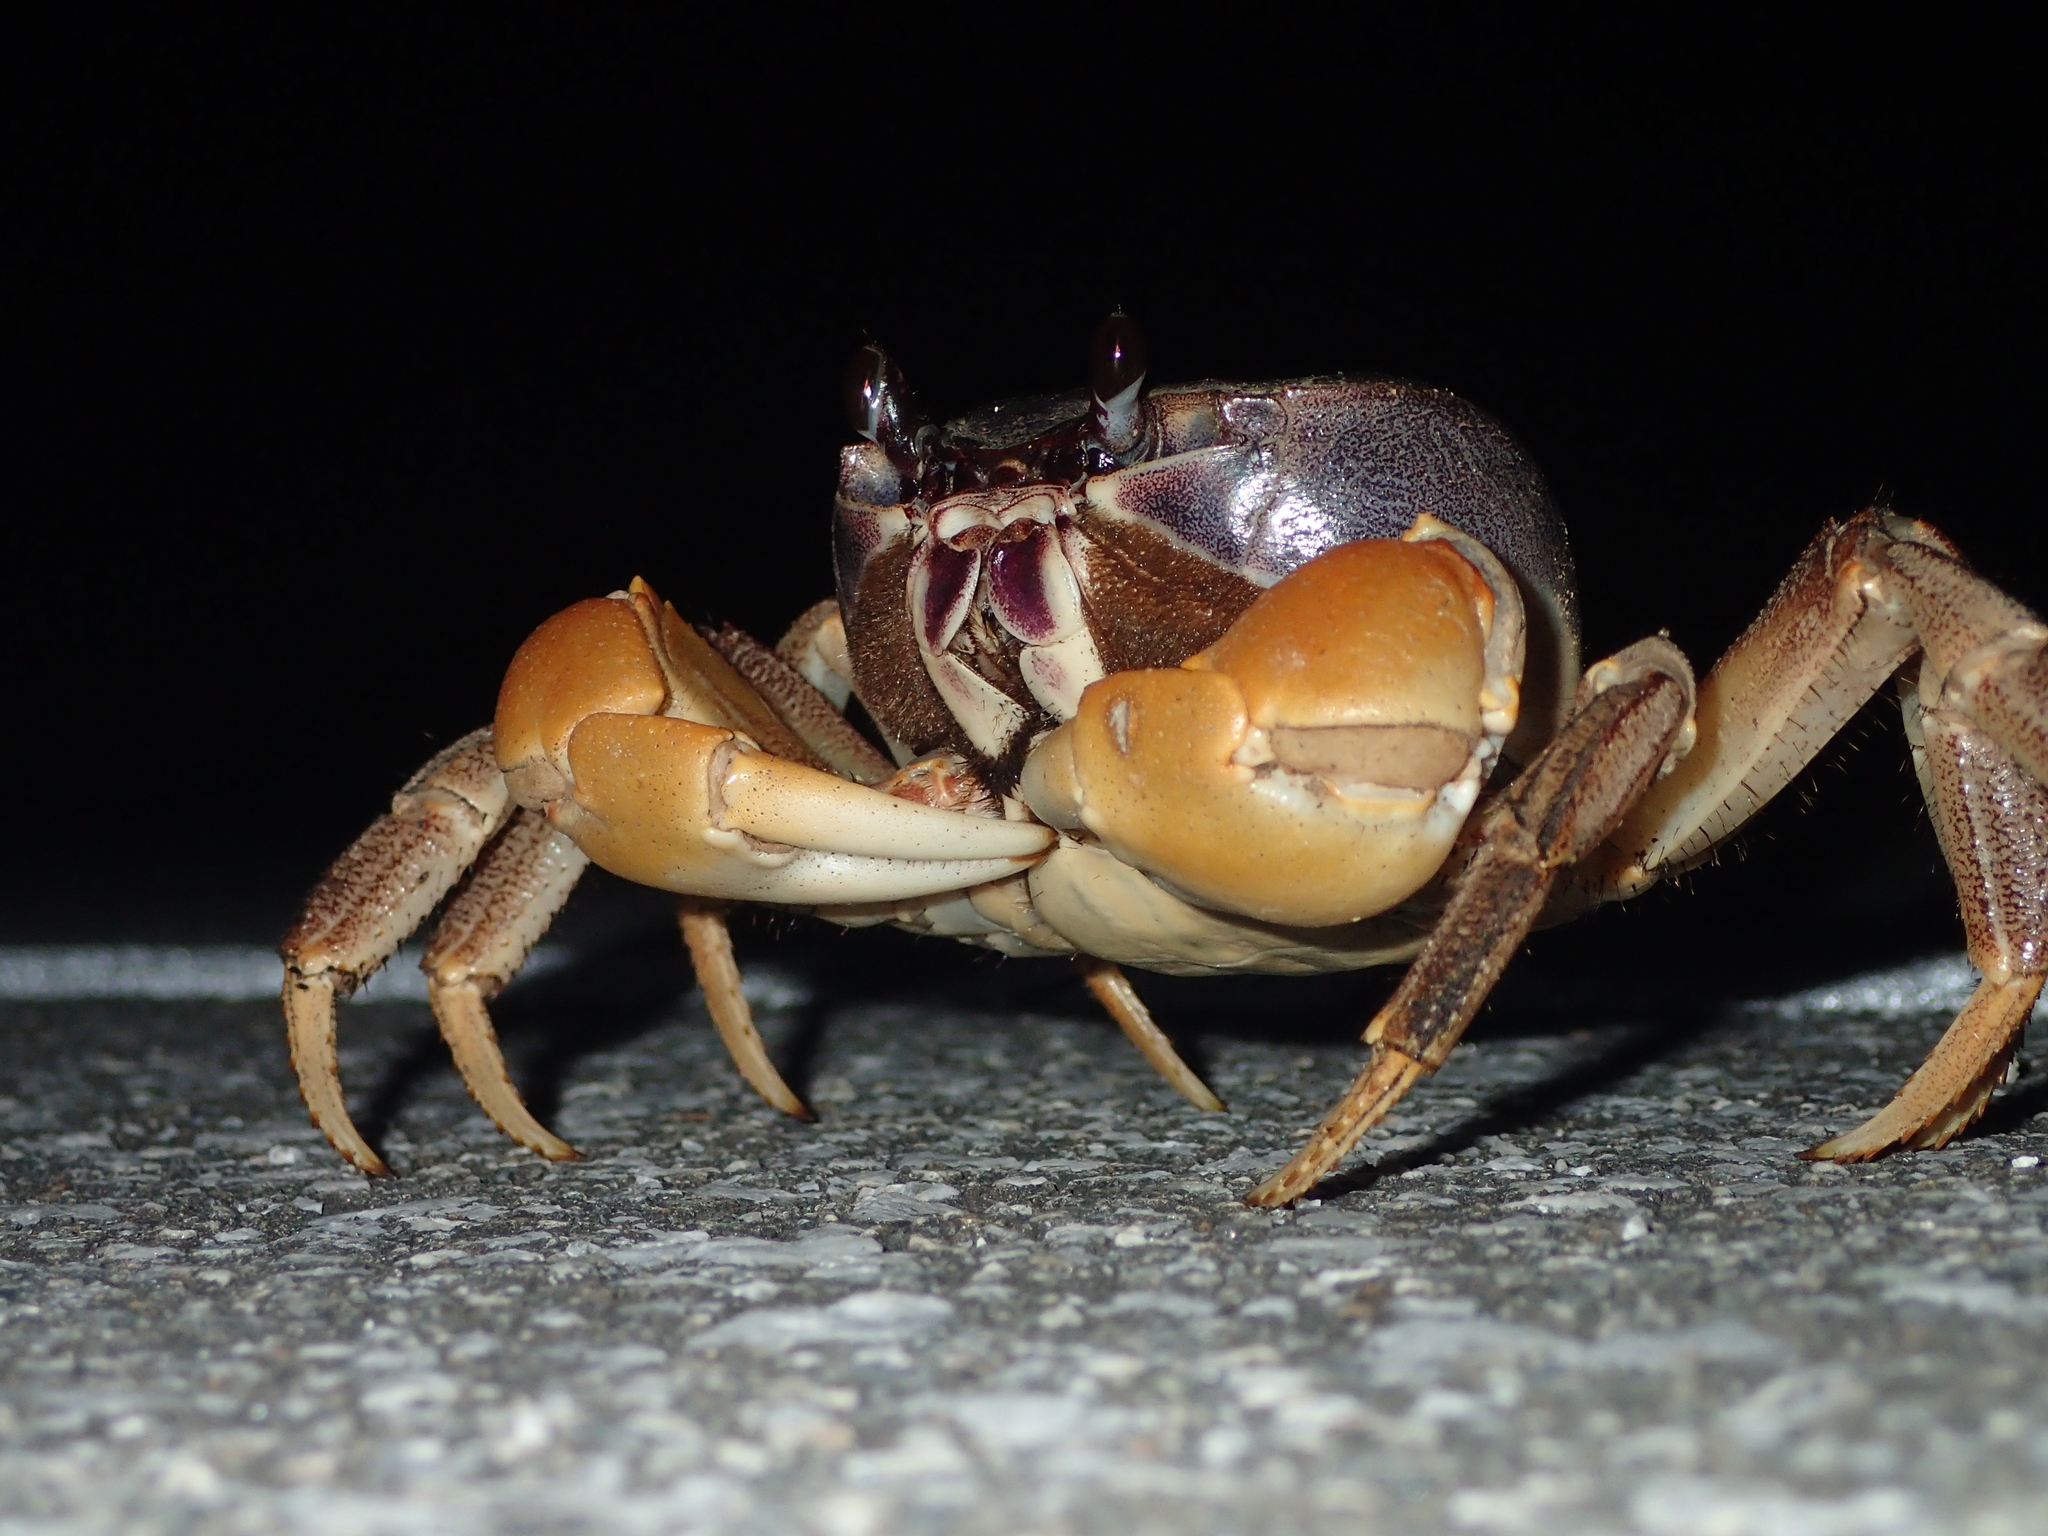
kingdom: Animalia
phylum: Arthropoda
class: Malacostraca
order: Decapoda
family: Gecarcinidae
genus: Tuerkayana
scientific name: Tuerkayana hirtipes
